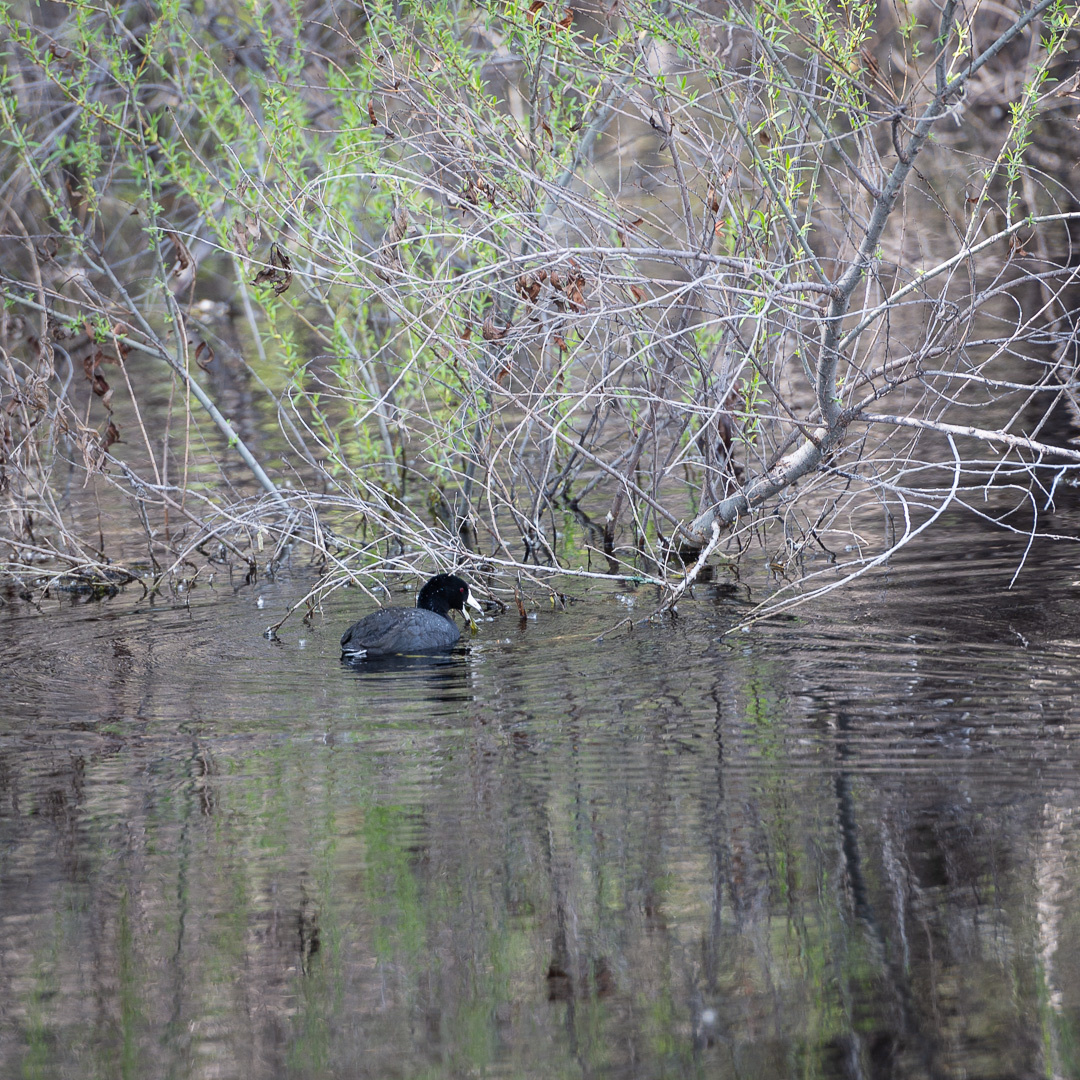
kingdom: Animalia
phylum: Chordata
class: Aves
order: Gruiformes
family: Rallidae
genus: Fulica
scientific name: Fulica americana
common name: American coot
